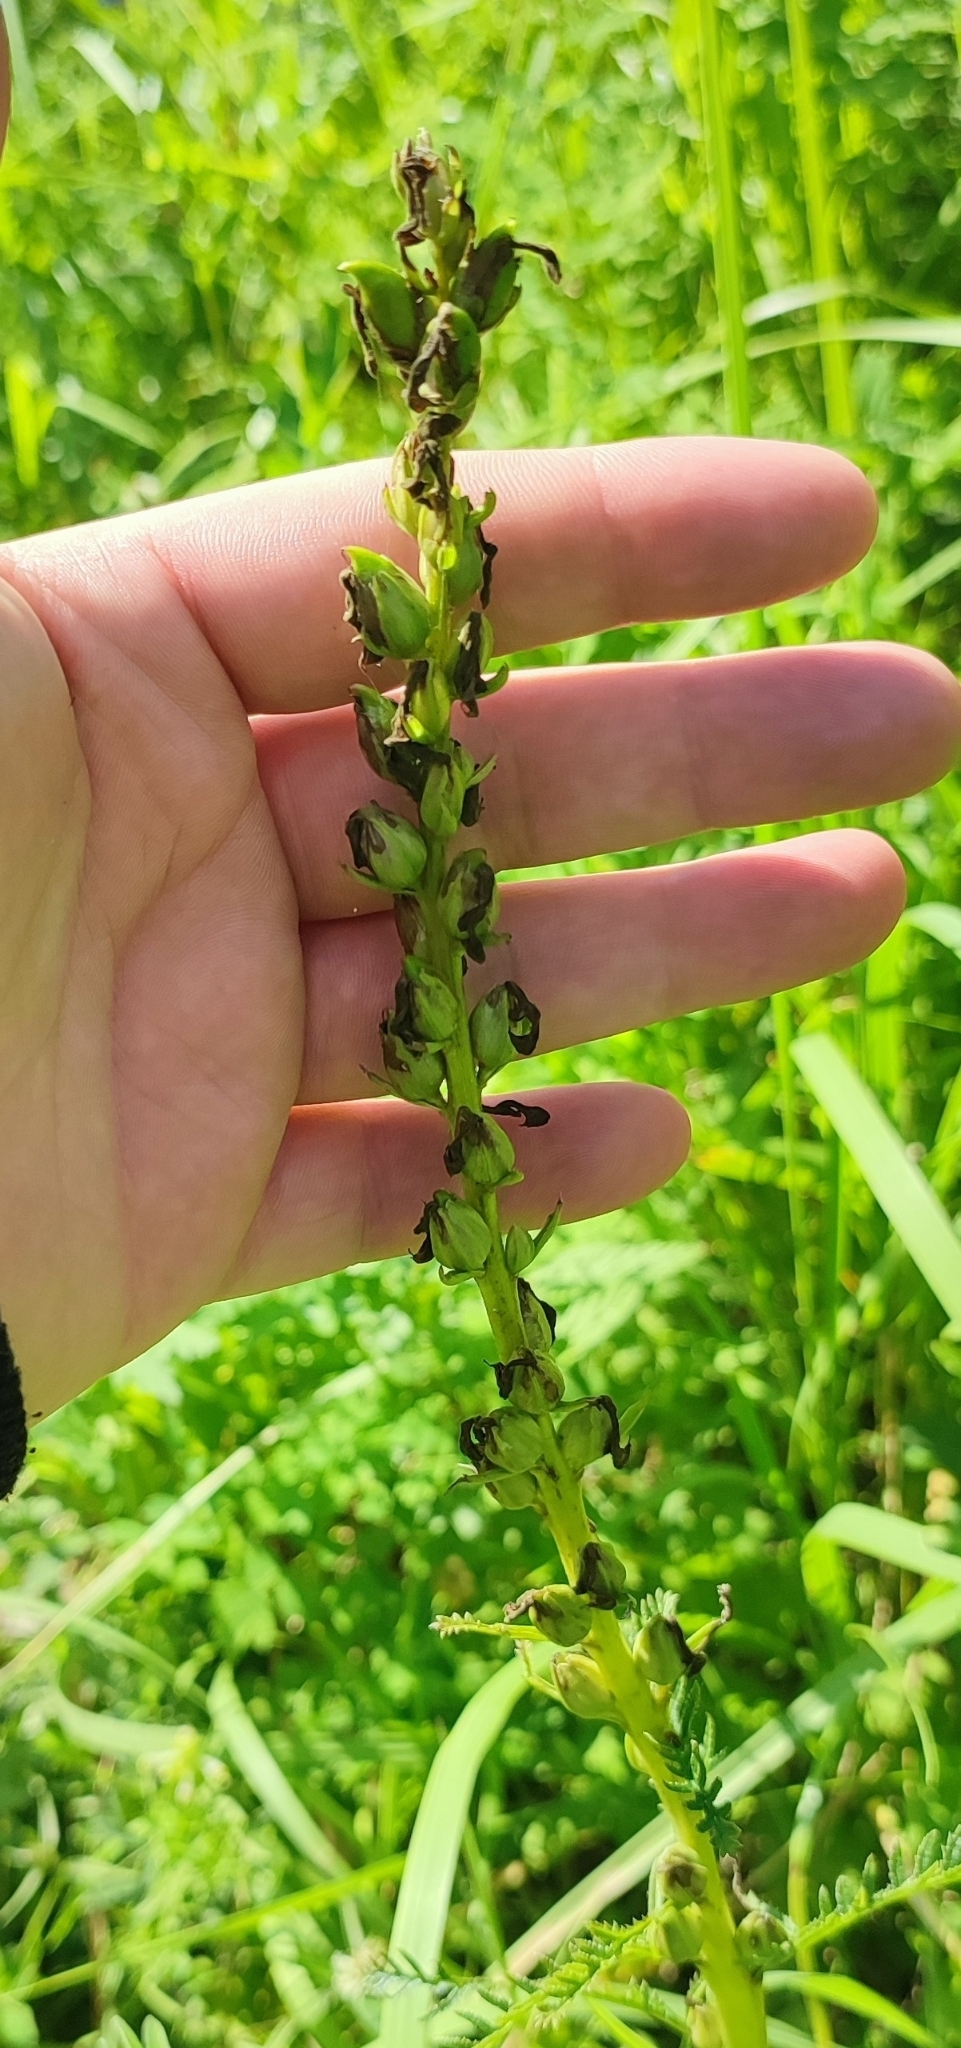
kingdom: Plantae
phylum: Tracheophyta
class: Magnoliopsida
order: Lamiales
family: Orobanchaceae
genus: Pedicularis
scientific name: Pedicularis uralensis
